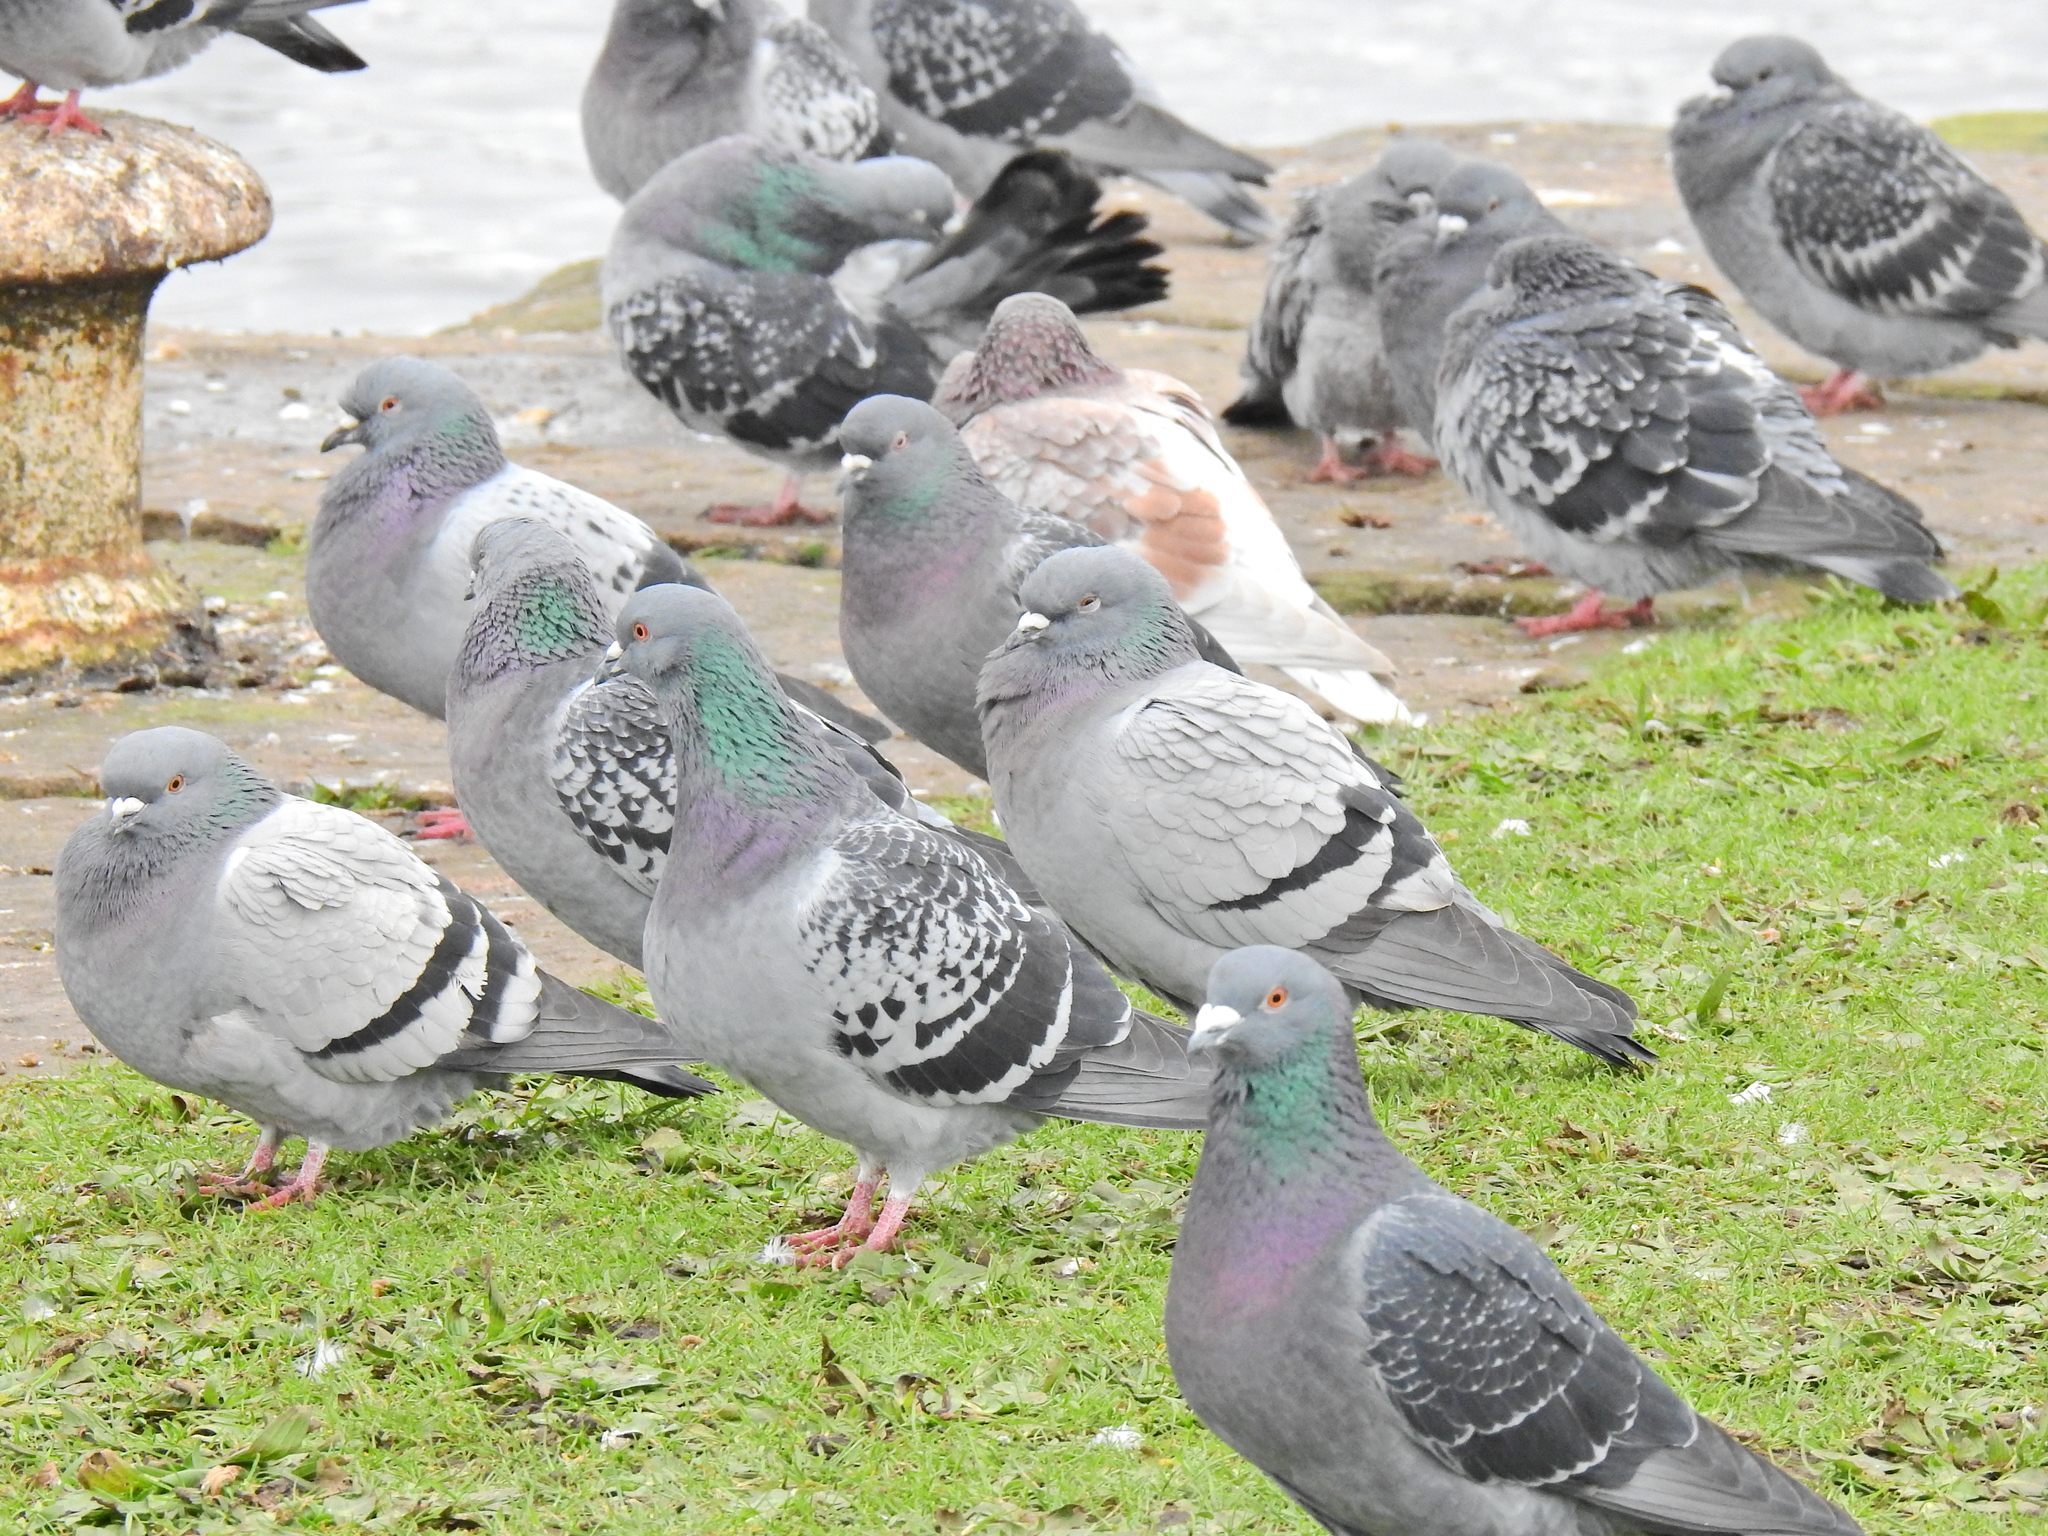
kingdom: Animalia
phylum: Chordata
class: Aves
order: Columbiformes
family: Columbidae
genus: Columba
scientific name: Columba livia
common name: Rock pigeon
